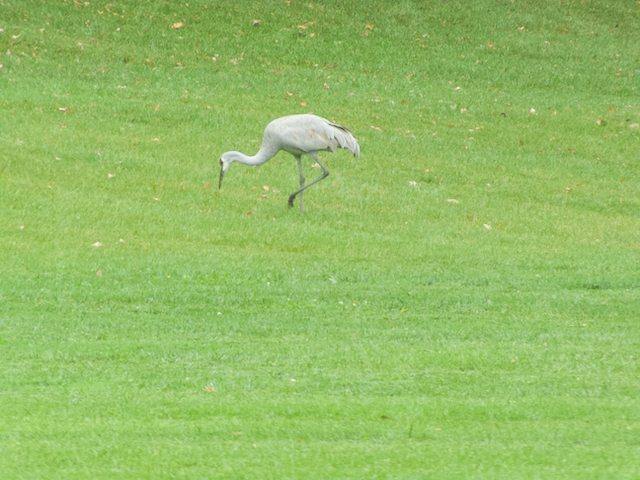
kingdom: Animalia
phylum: Chordata
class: Aves
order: Gruiformes
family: Gruidae
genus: Grus
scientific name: Grus canadensis
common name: Sandhill crane
